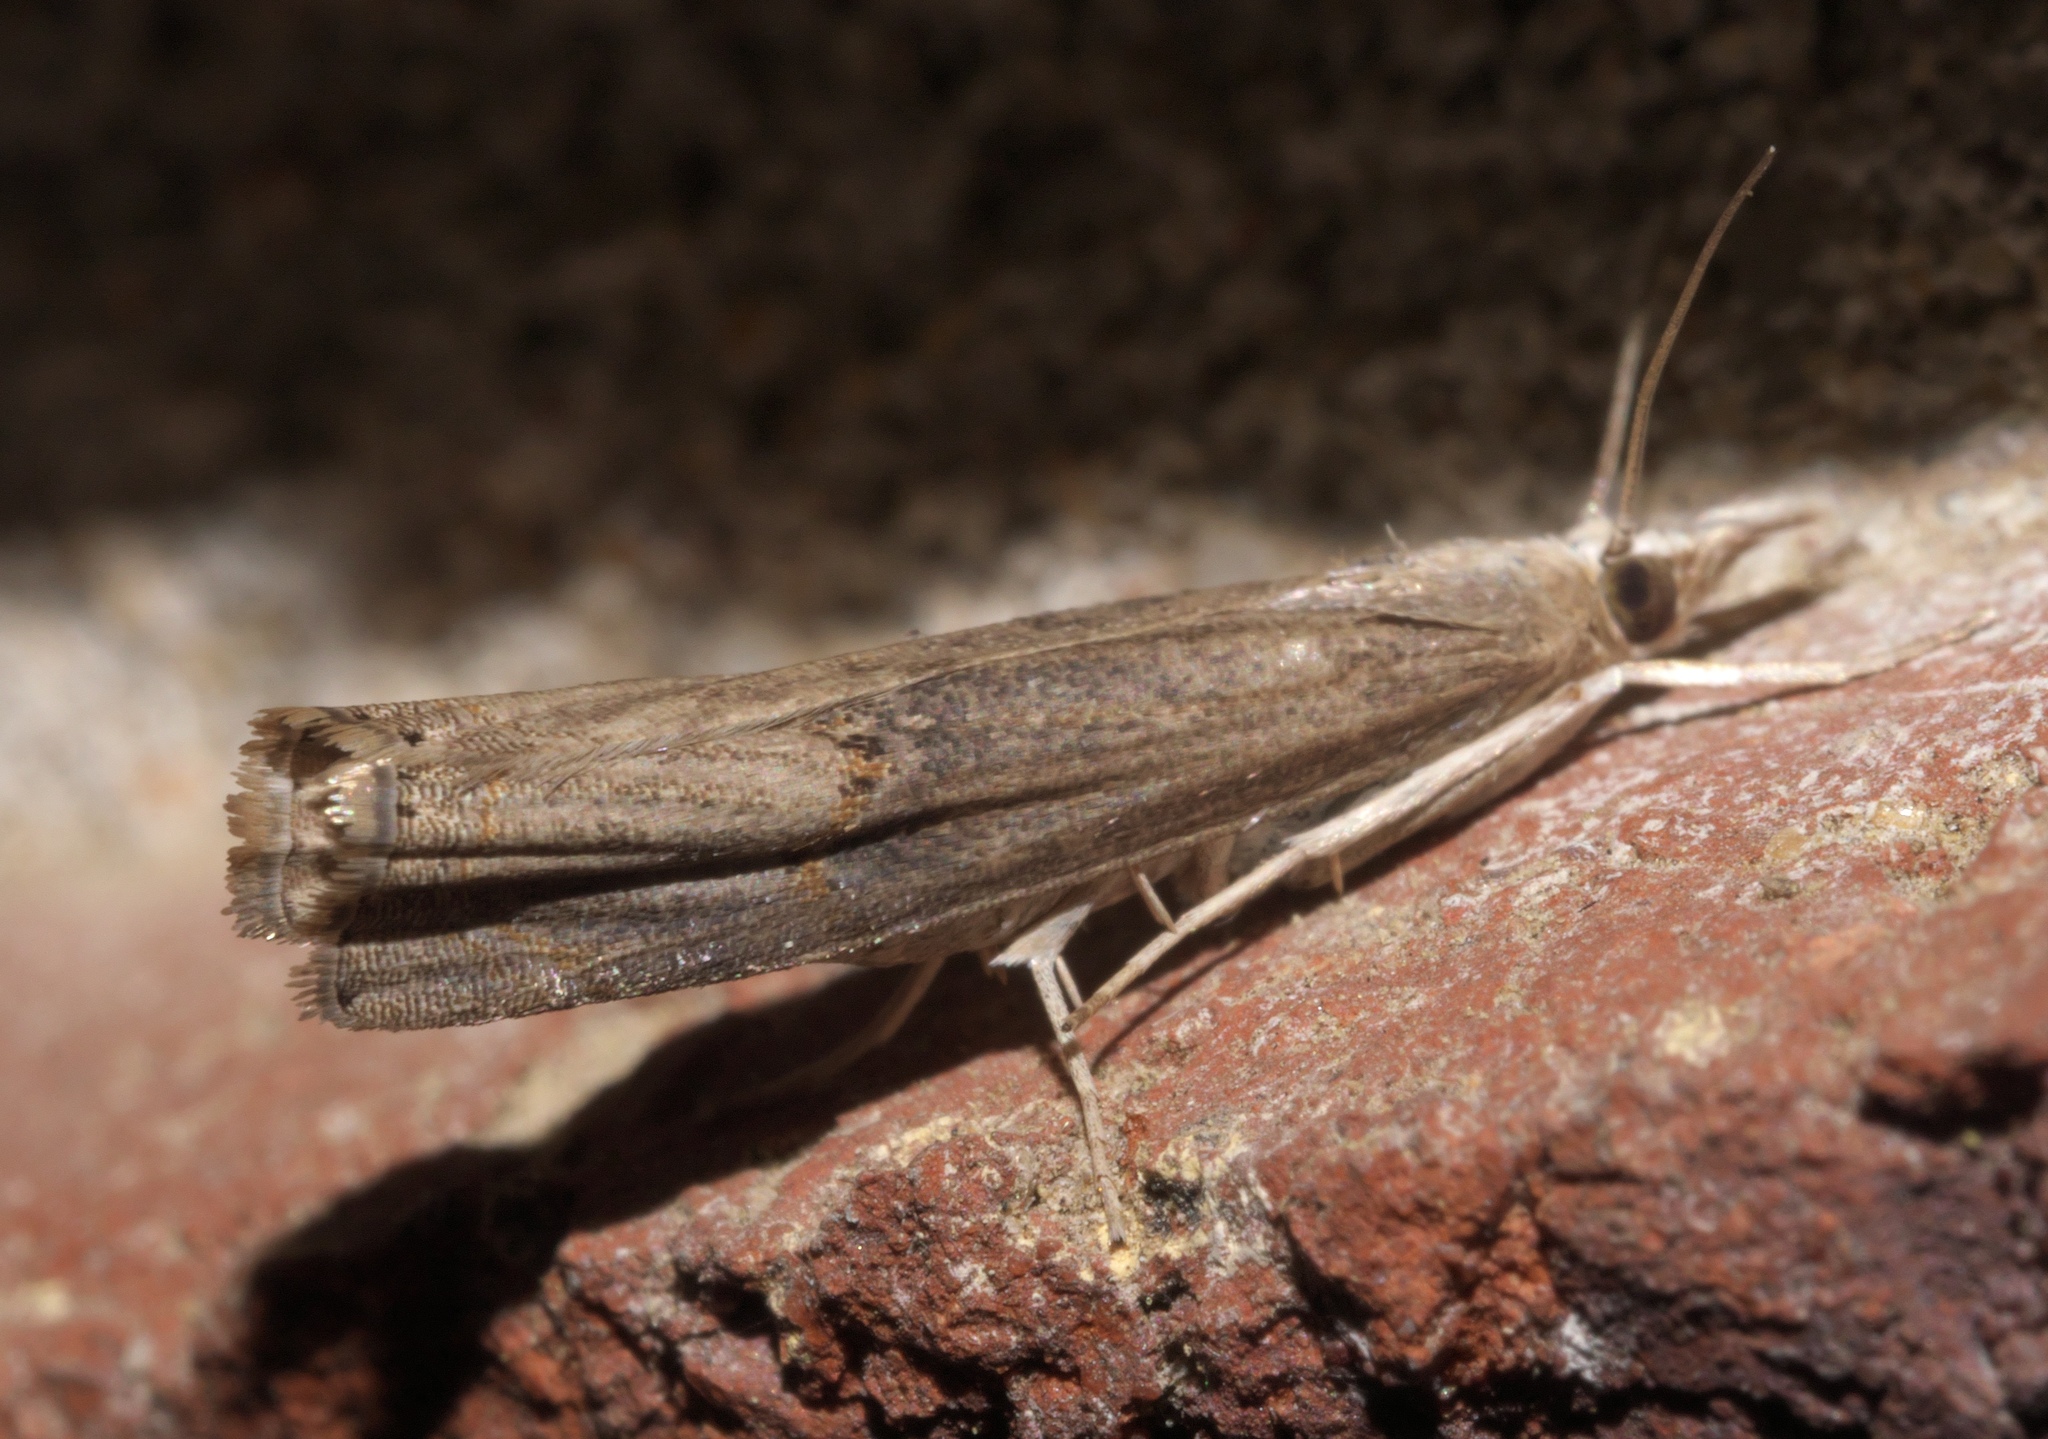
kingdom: Animalia
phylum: Arthropoda
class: Insecta
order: Lepidoptera
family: Crambidae
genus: Parapediasia
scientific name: Parapediasia teterellus
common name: Bluegrass webworm moth
